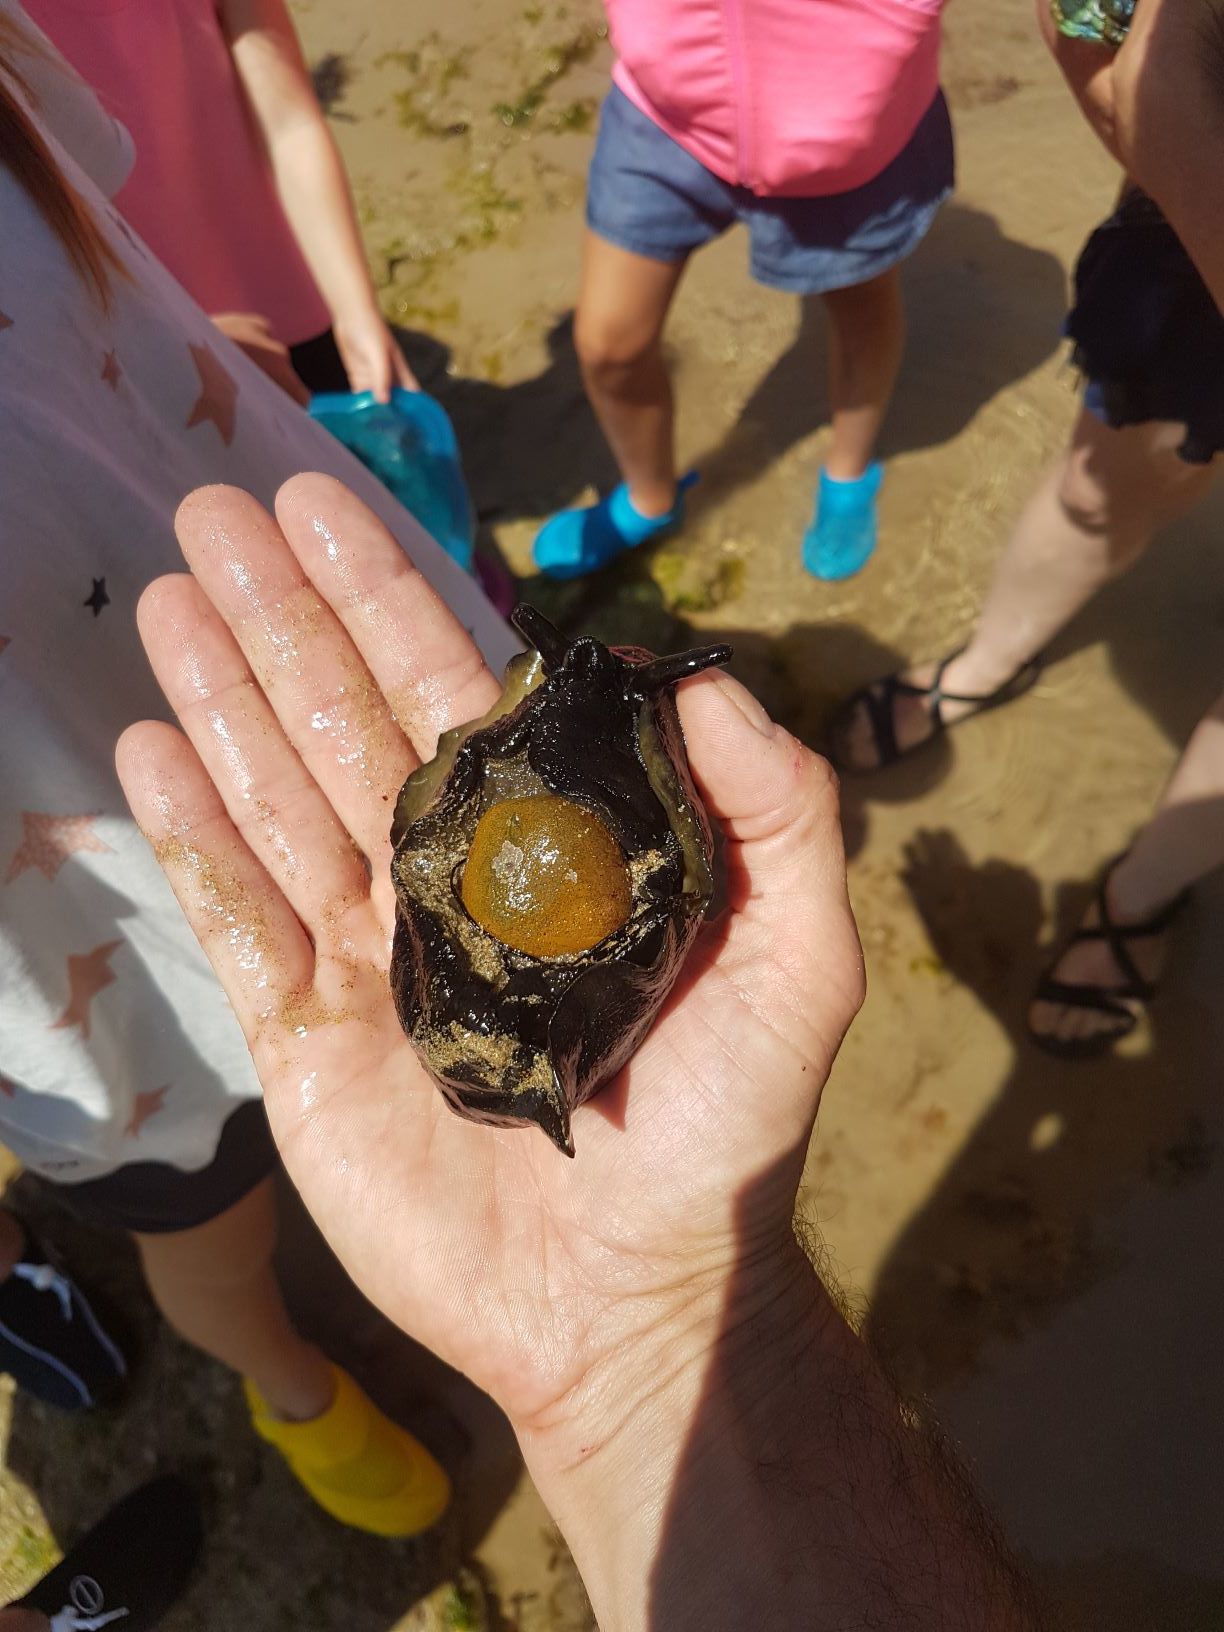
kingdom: Animalia
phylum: Mollusca
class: Gastropoda
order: Lepetellida
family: Fissurellidae
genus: Scutus
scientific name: Scutus antipodes
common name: Duckbill shell
